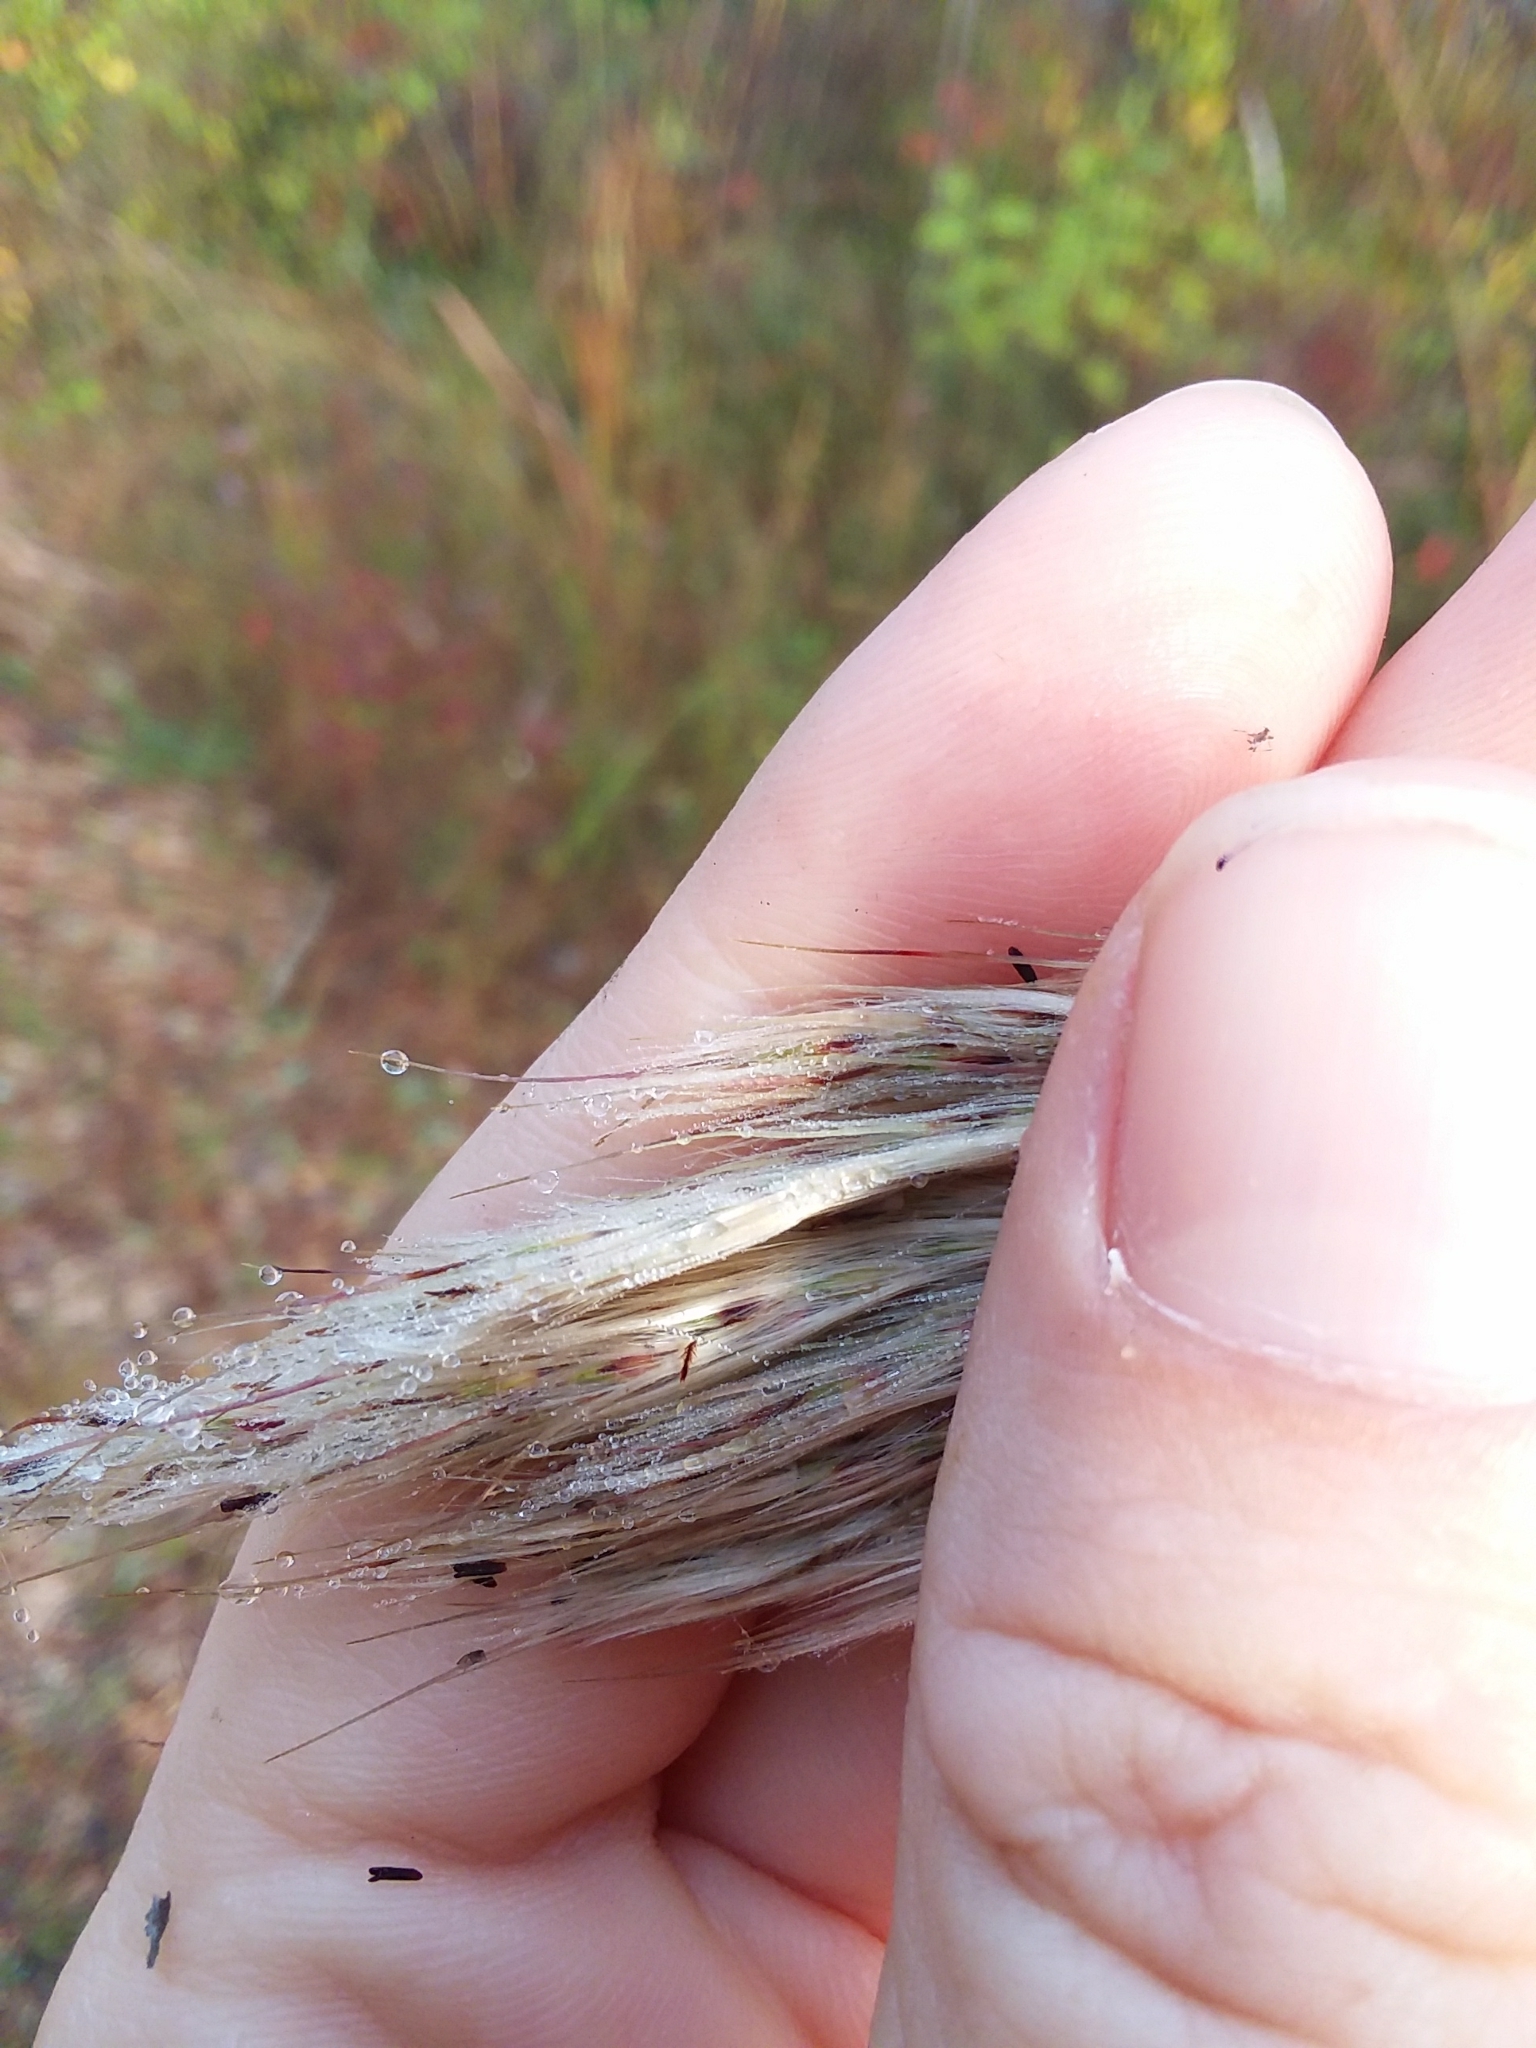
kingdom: Plantae
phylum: Tracheophyta
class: Liliopsida
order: Poales
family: Poaceae
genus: Erianthus
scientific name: Erianthus alopecuroides
